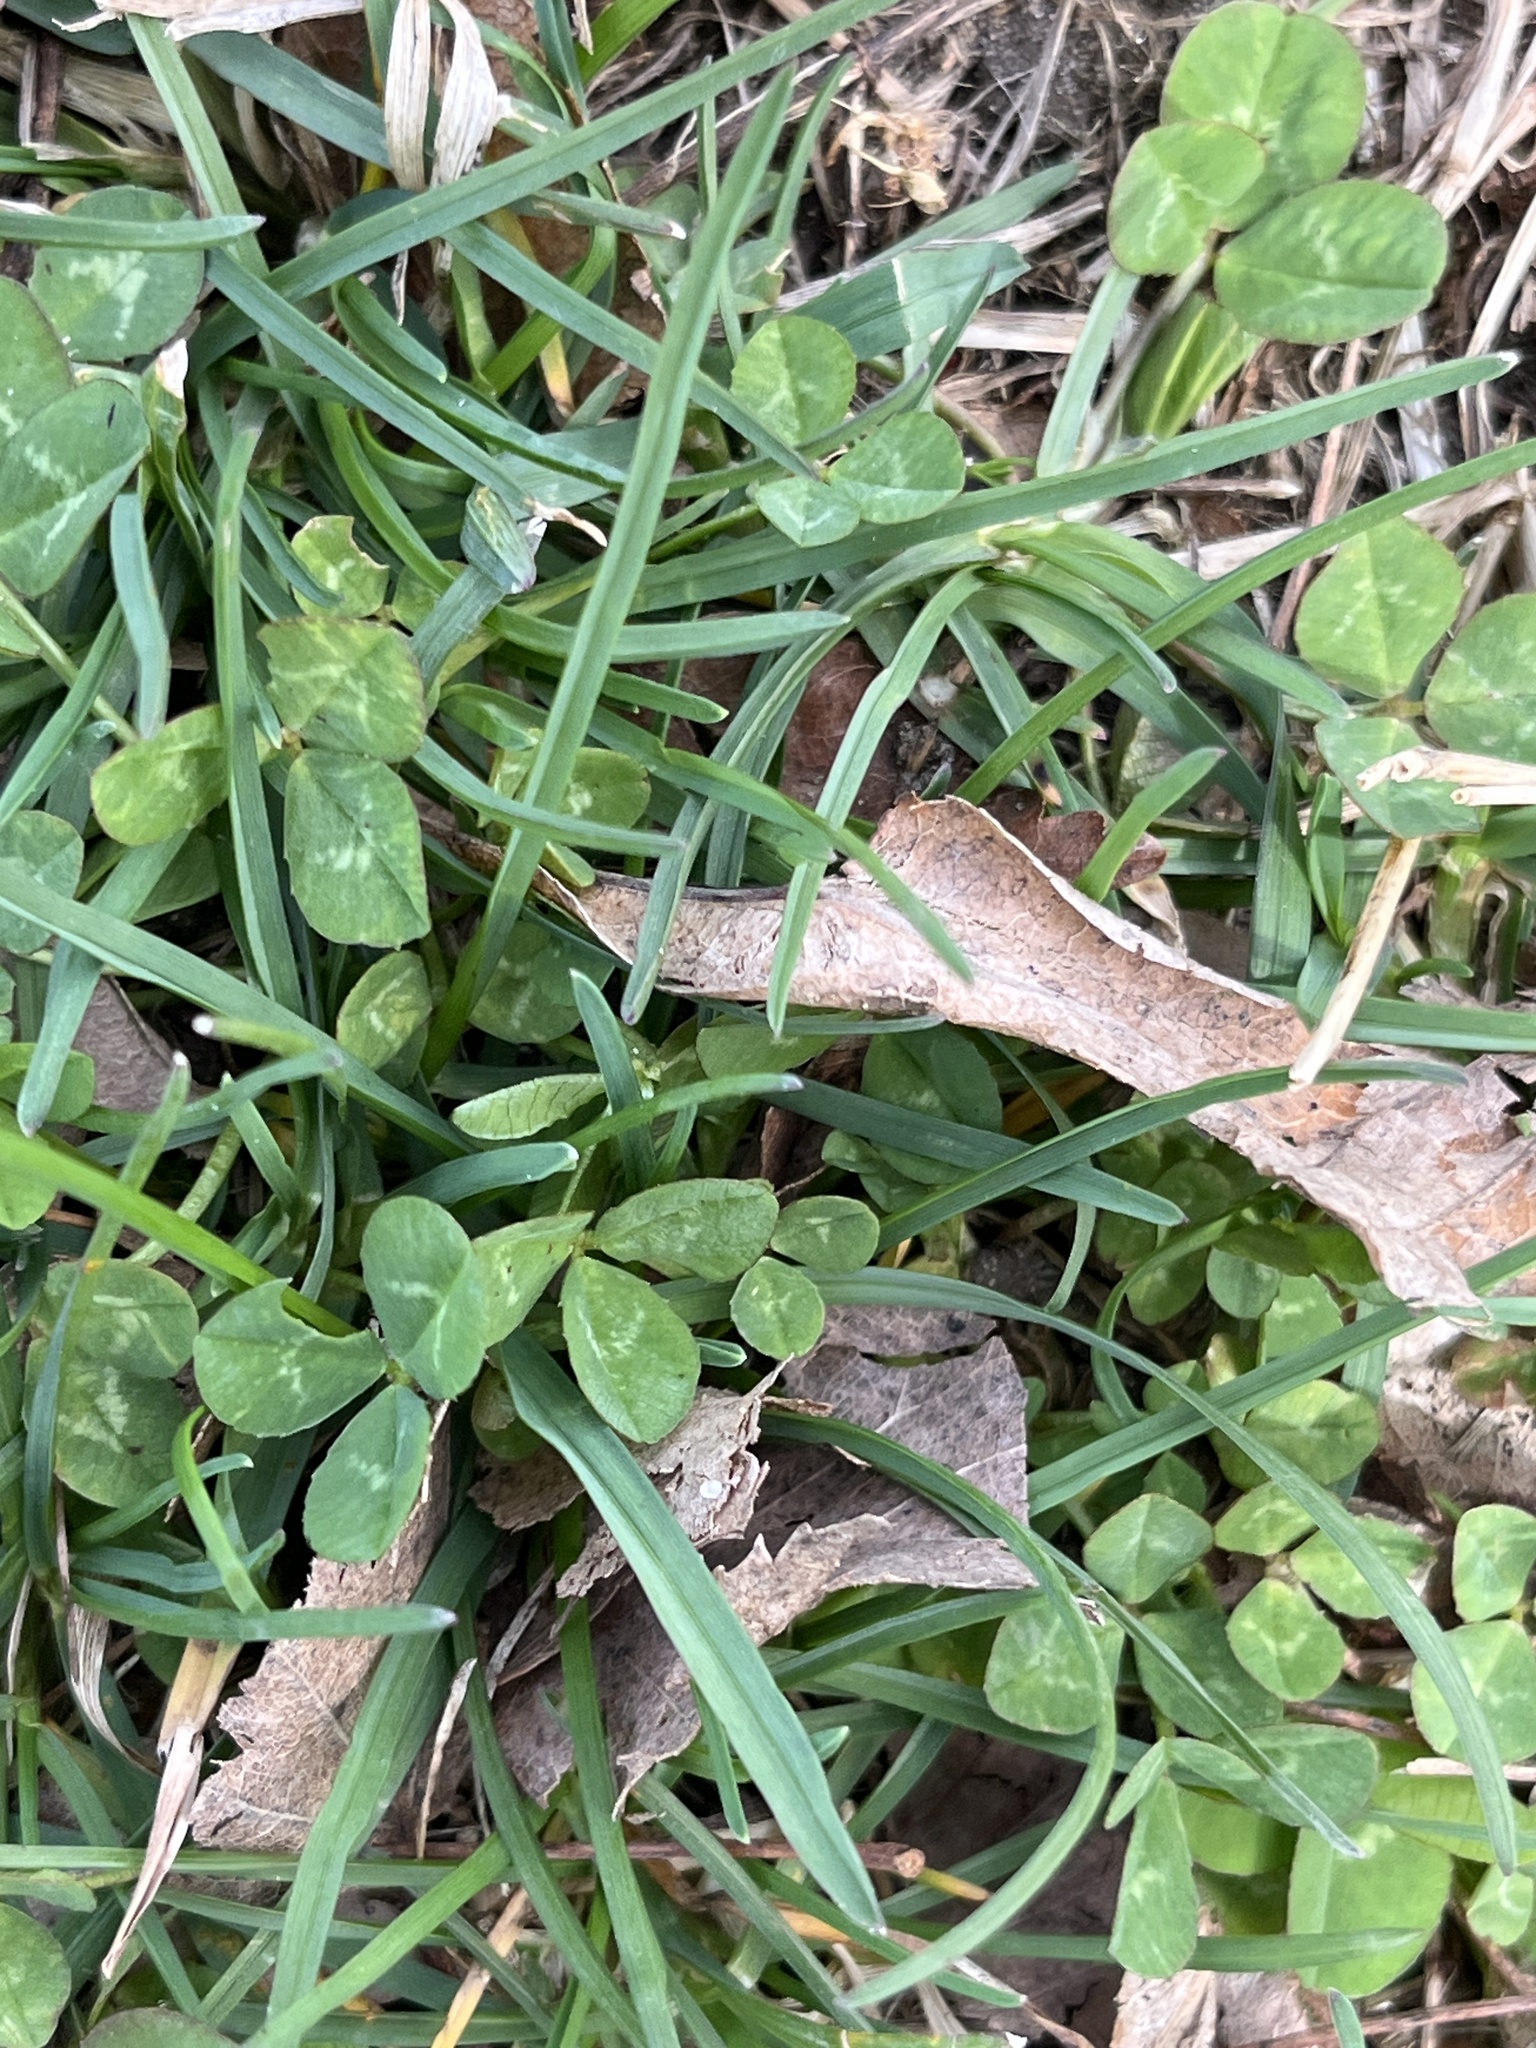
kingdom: Plantae
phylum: Tracheophyta
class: Magnoliopsida
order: Fabales
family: Fabaceae
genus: Trifolium
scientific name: Trifolium repens
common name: White clover
